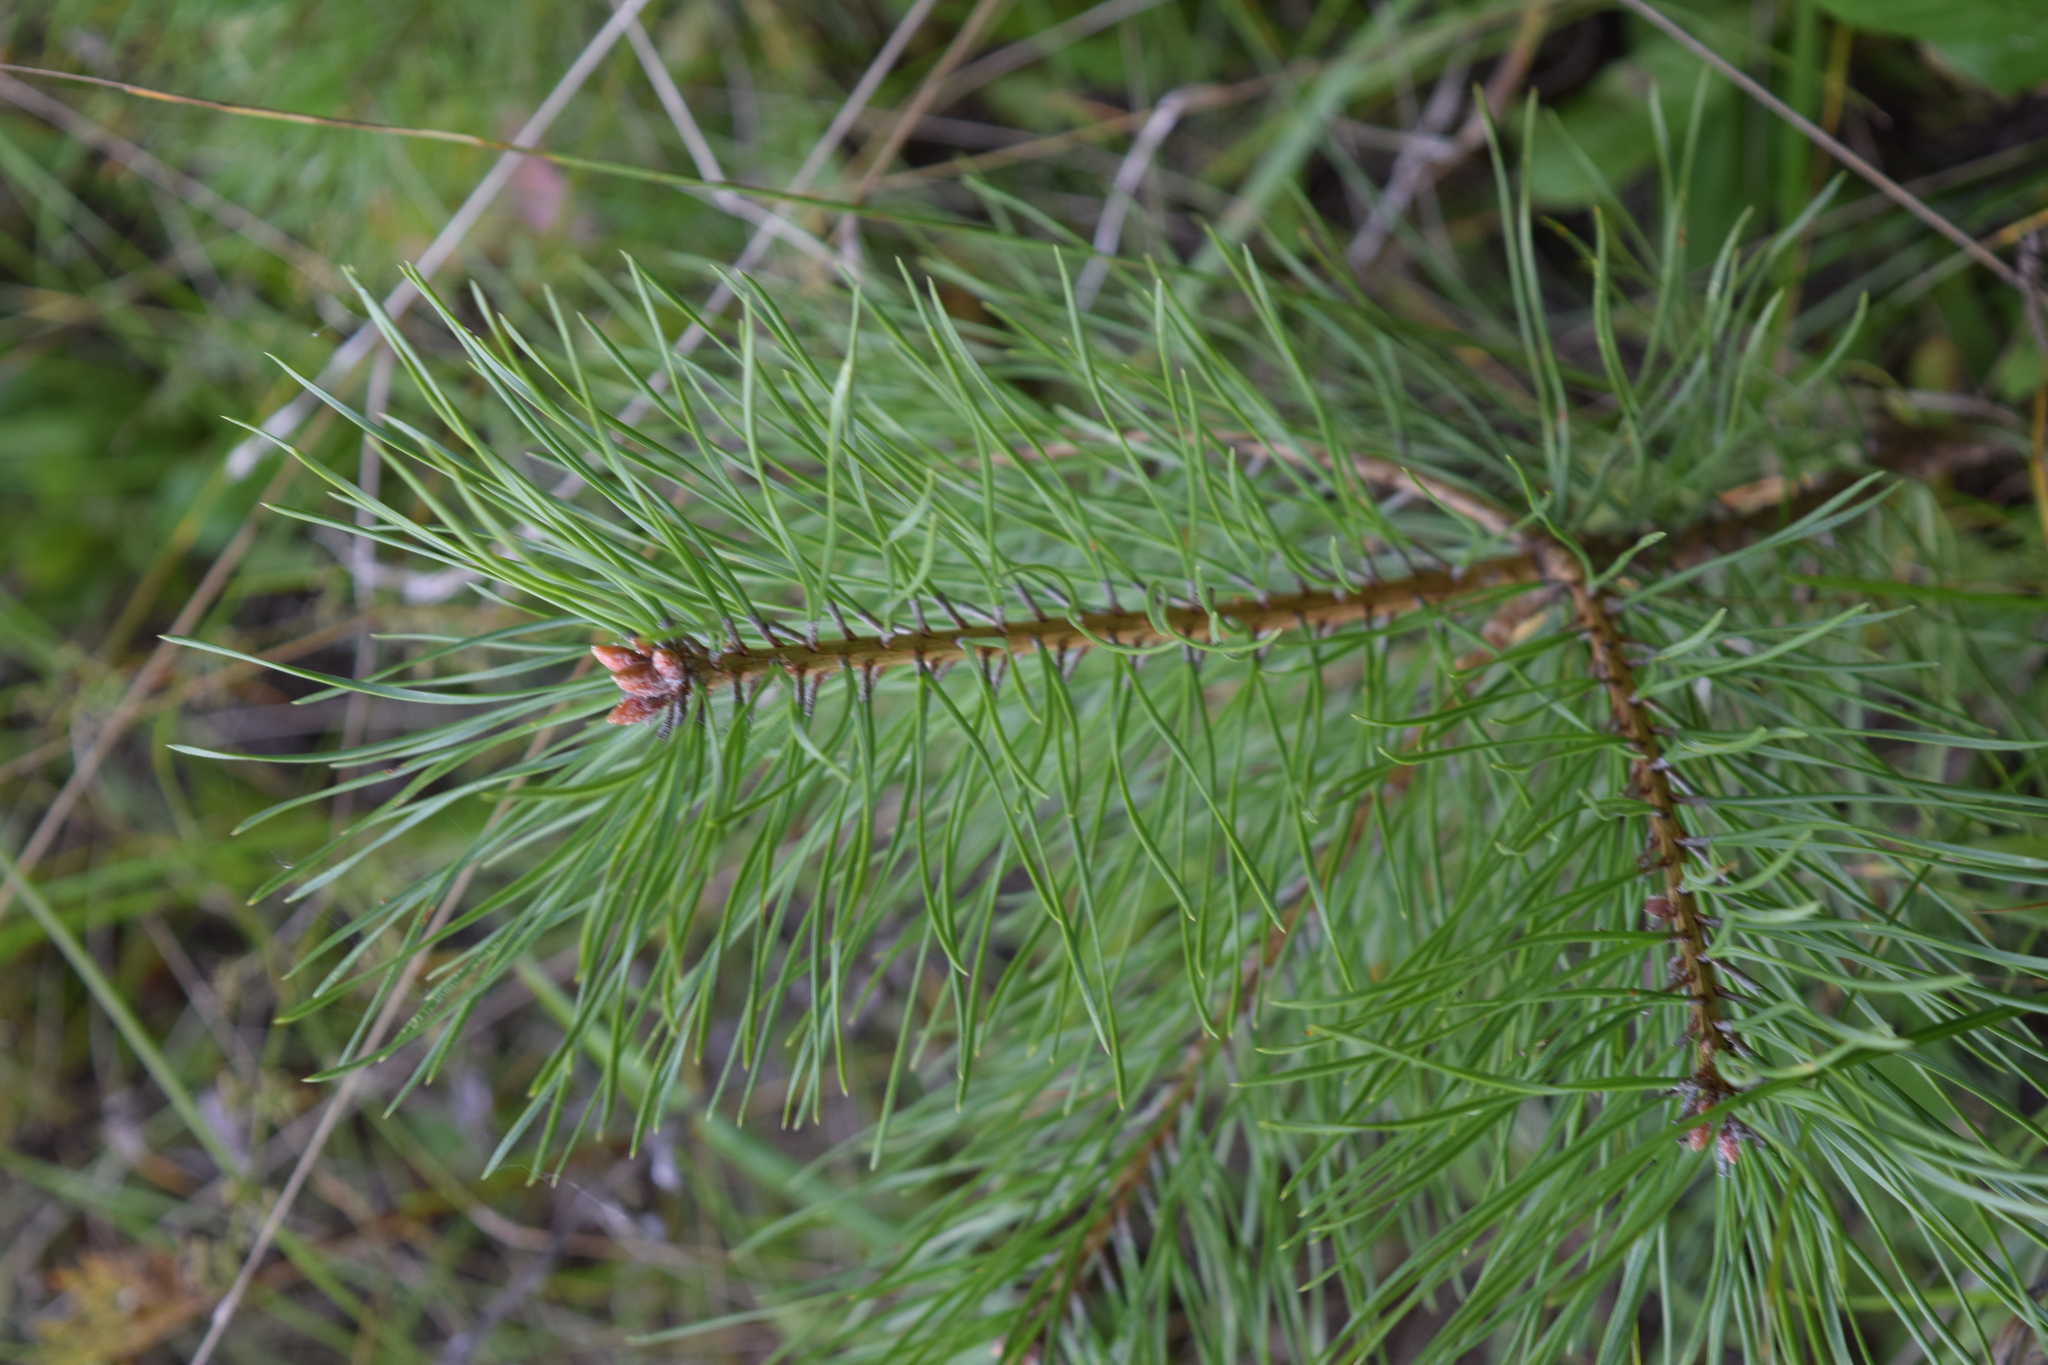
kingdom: Plantae
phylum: Tracheophyta
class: Pinopsida
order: Pinales
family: Pinaceae
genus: Pinus
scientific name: Pinus sylvestris
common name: Scots pine
